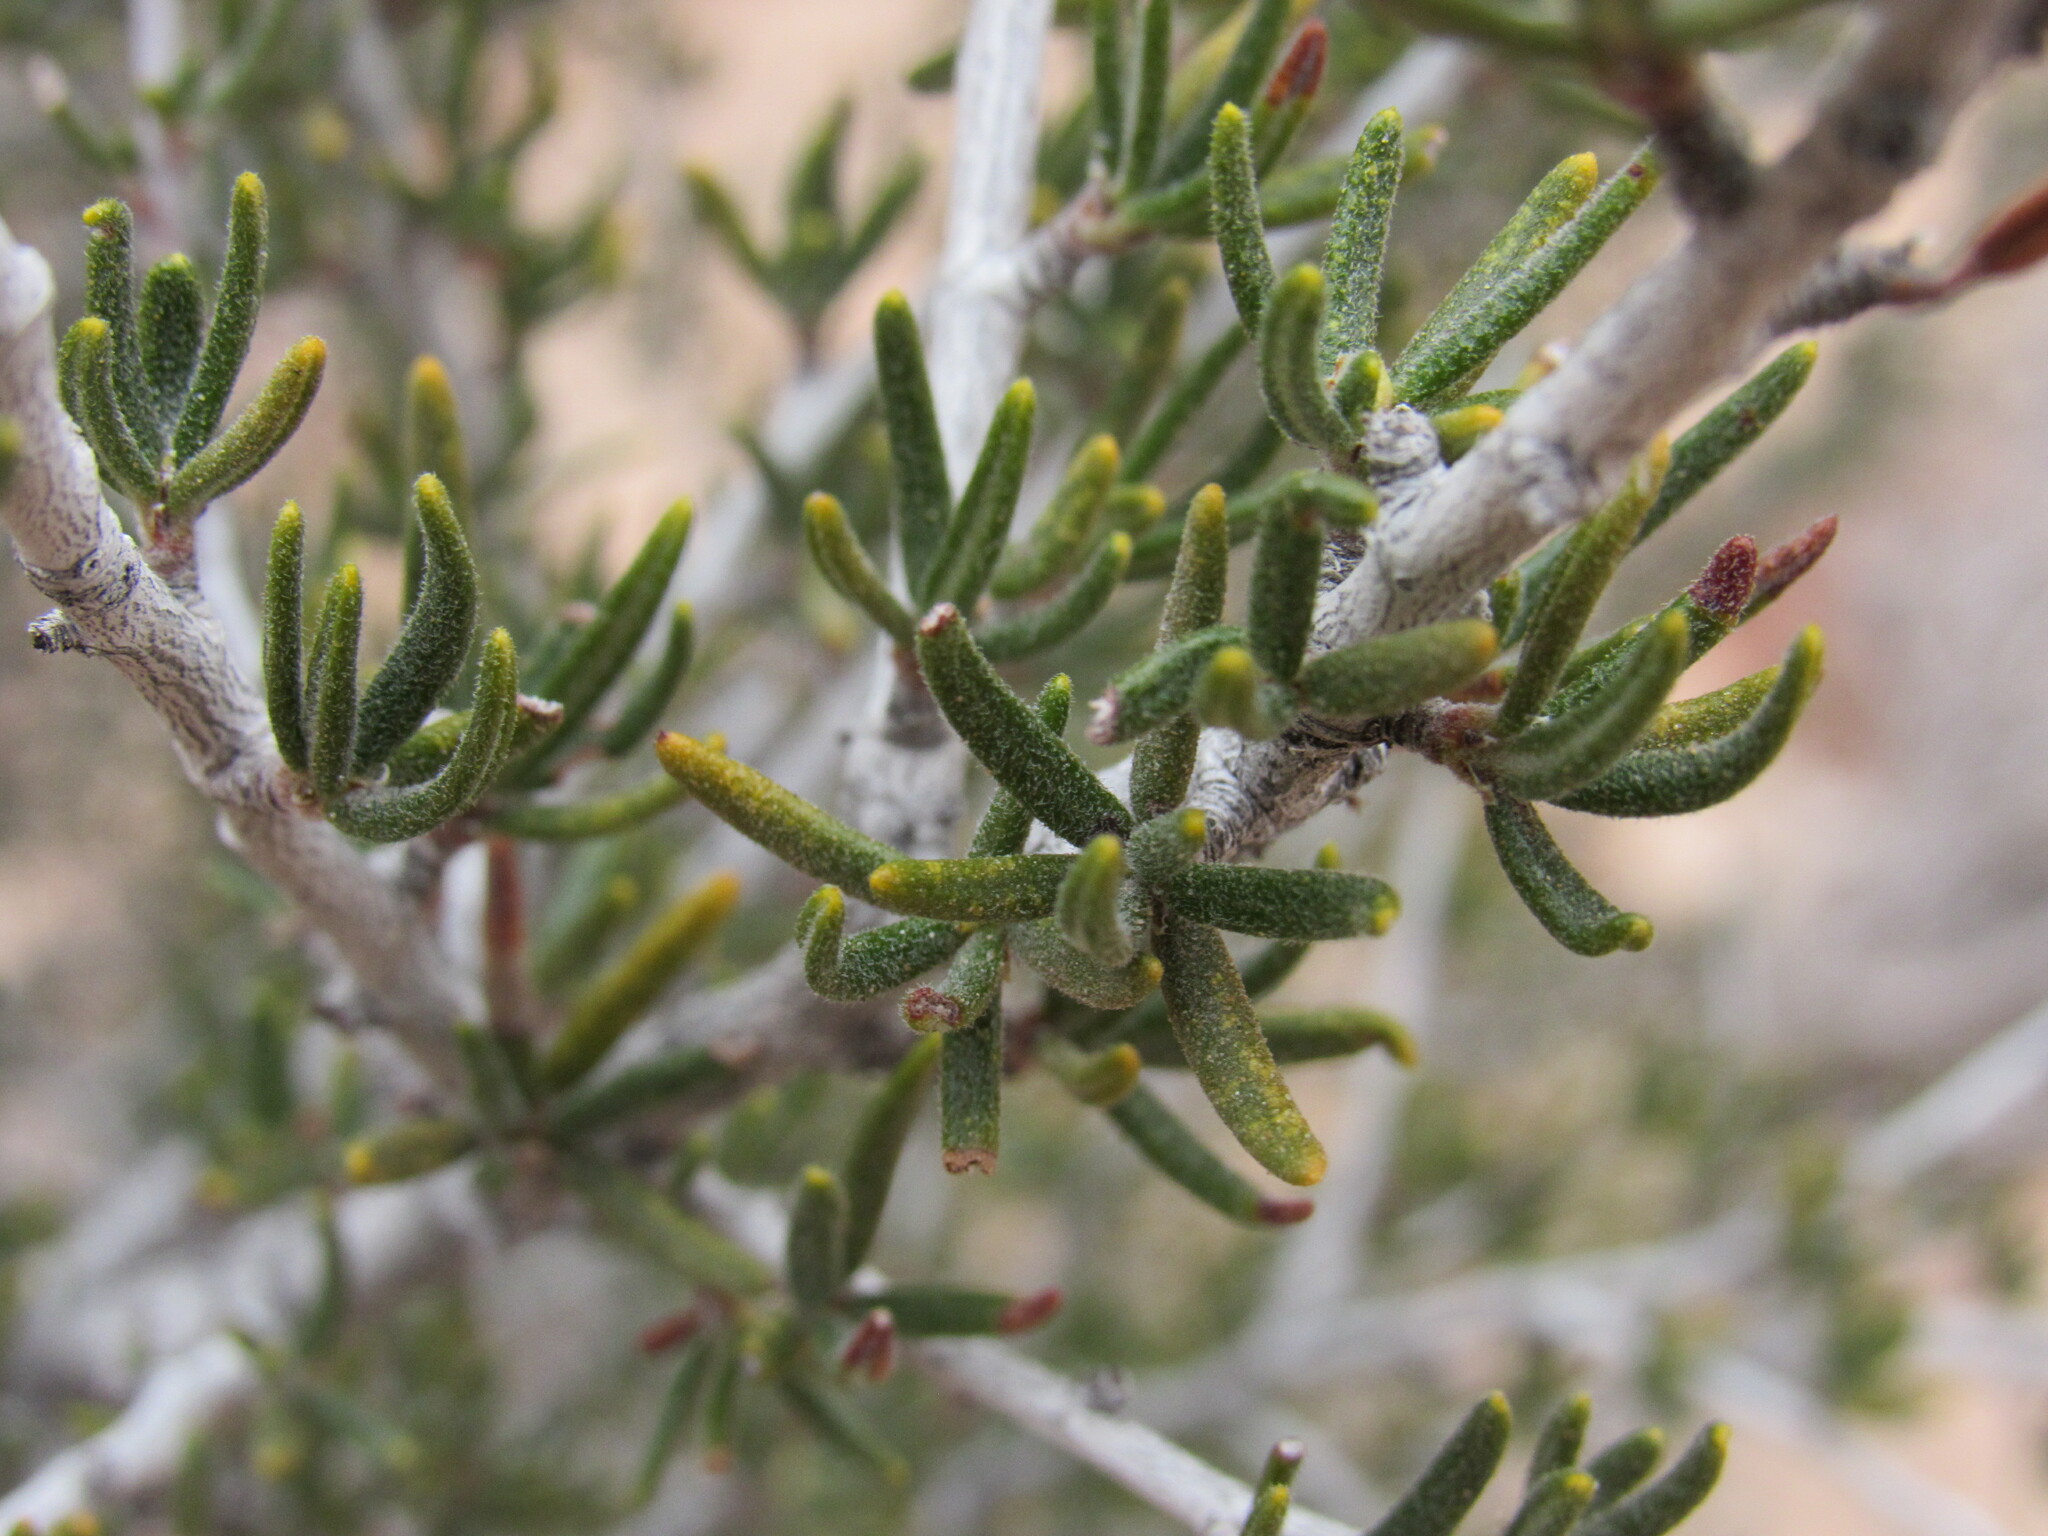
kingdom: Plantae
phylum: Tracheophyta
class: Magnoliopsida
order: Rosales
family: Rosaceae
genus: Cercocarpus
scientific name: Cercocarpus intricatus
